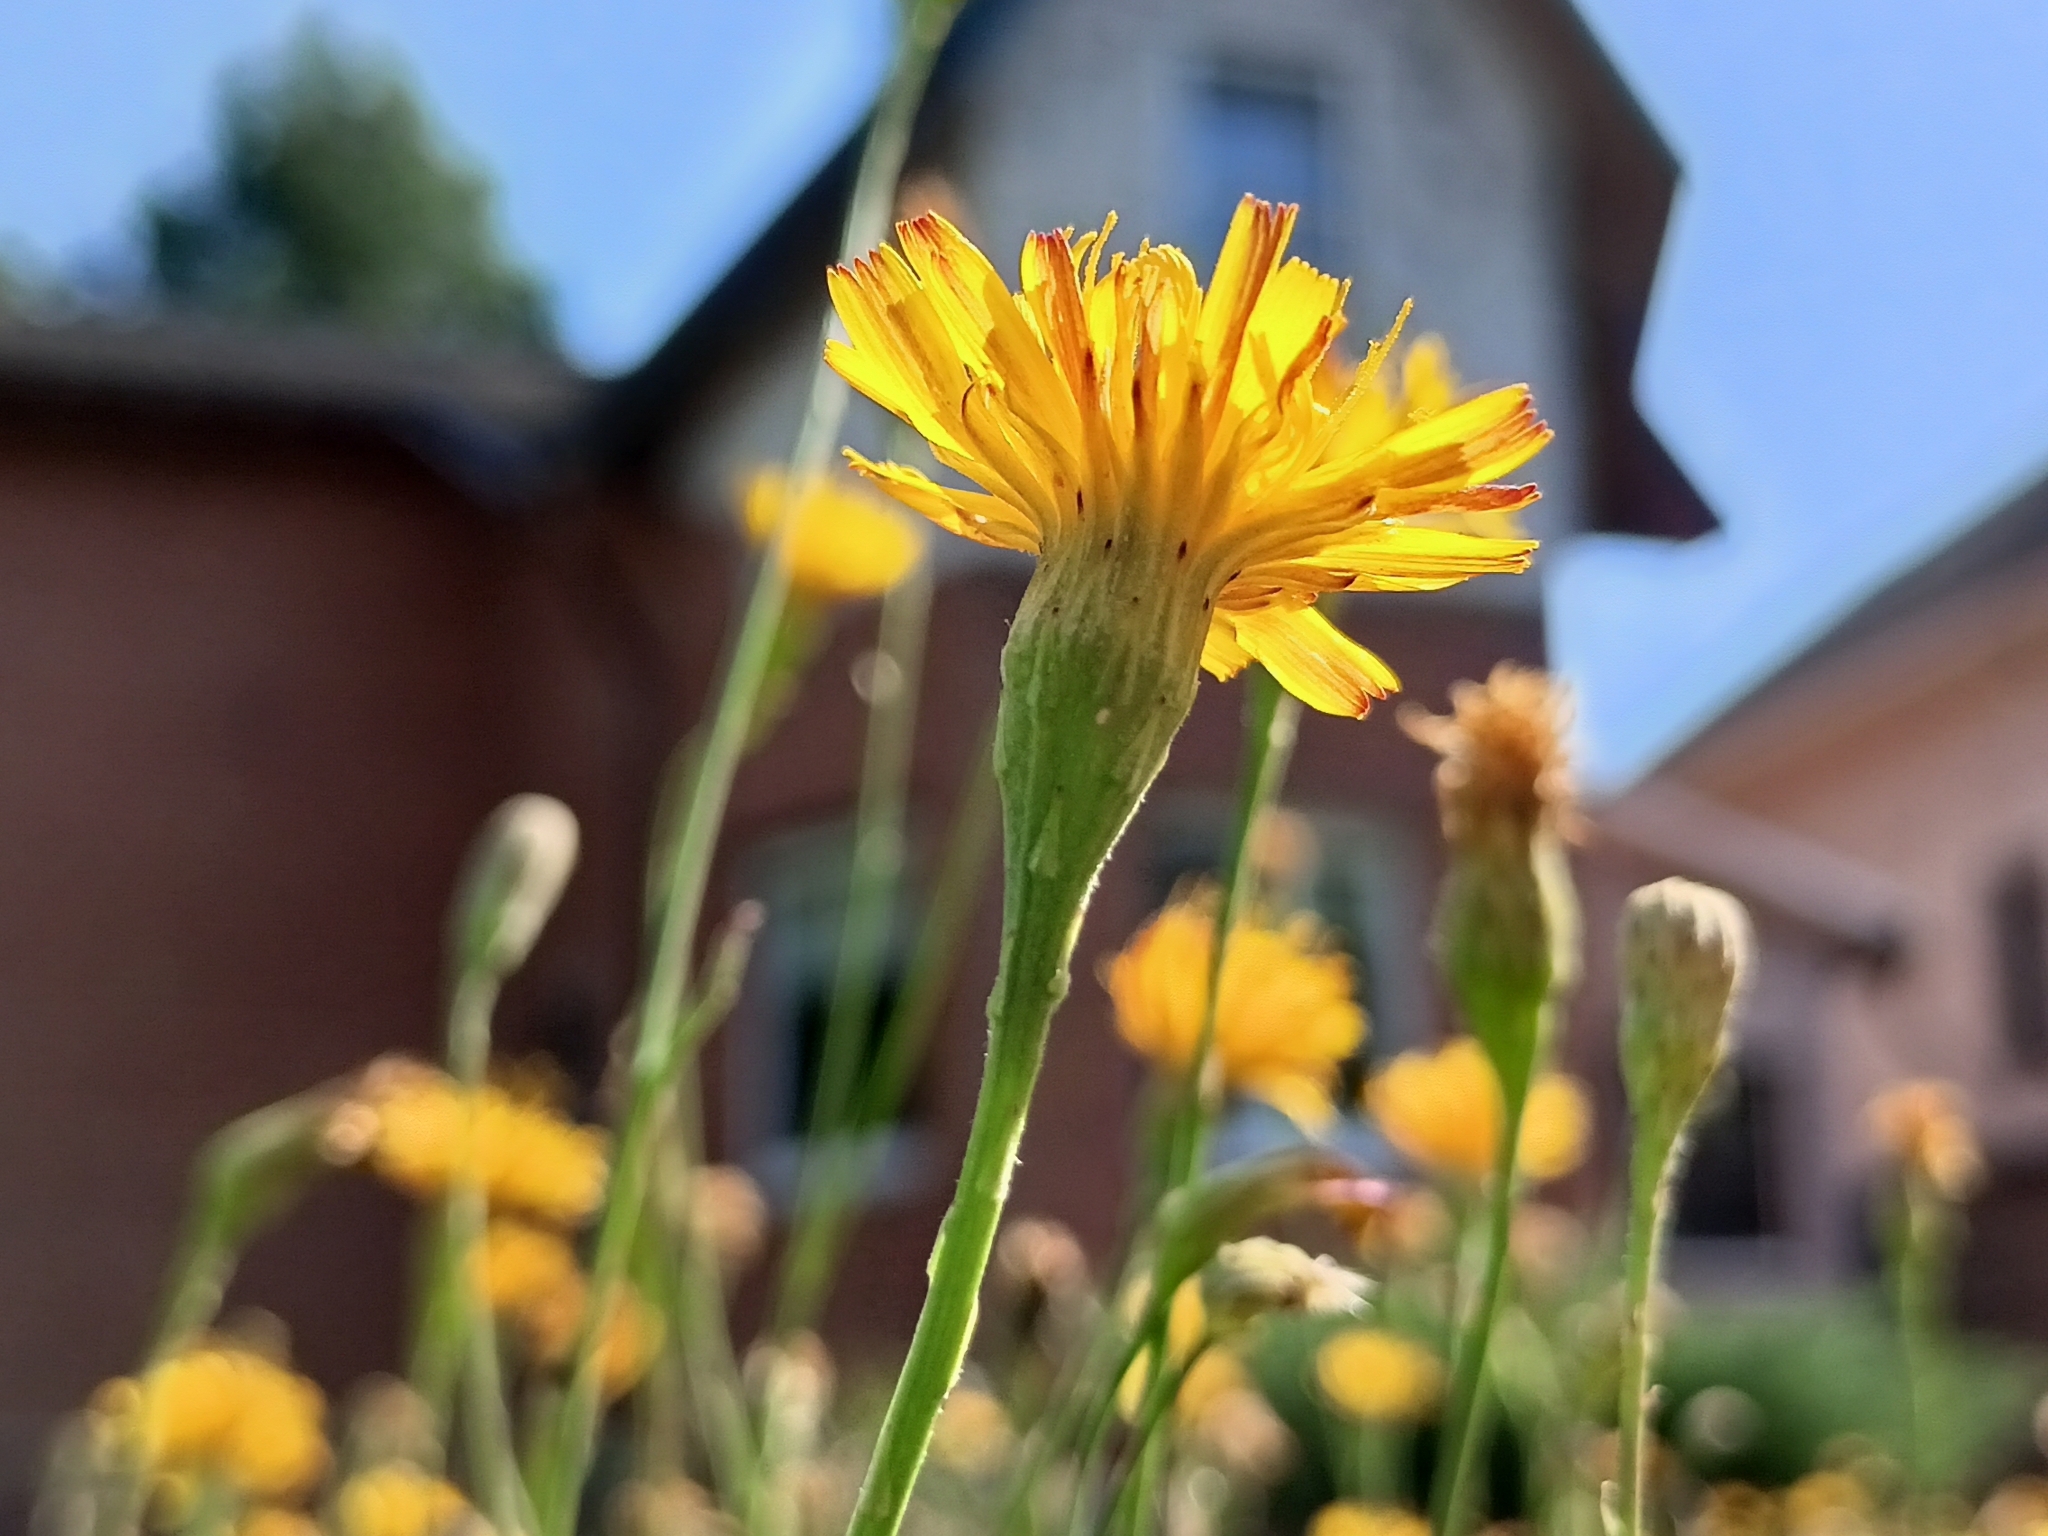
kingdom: Plantae
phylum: Tracheophyta
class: Magnoliopsida
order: Asterales
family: Asteraceae
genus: Scorzoneroides
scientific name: Scorzoneroides autumnalis
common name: Autumn hawkbit
